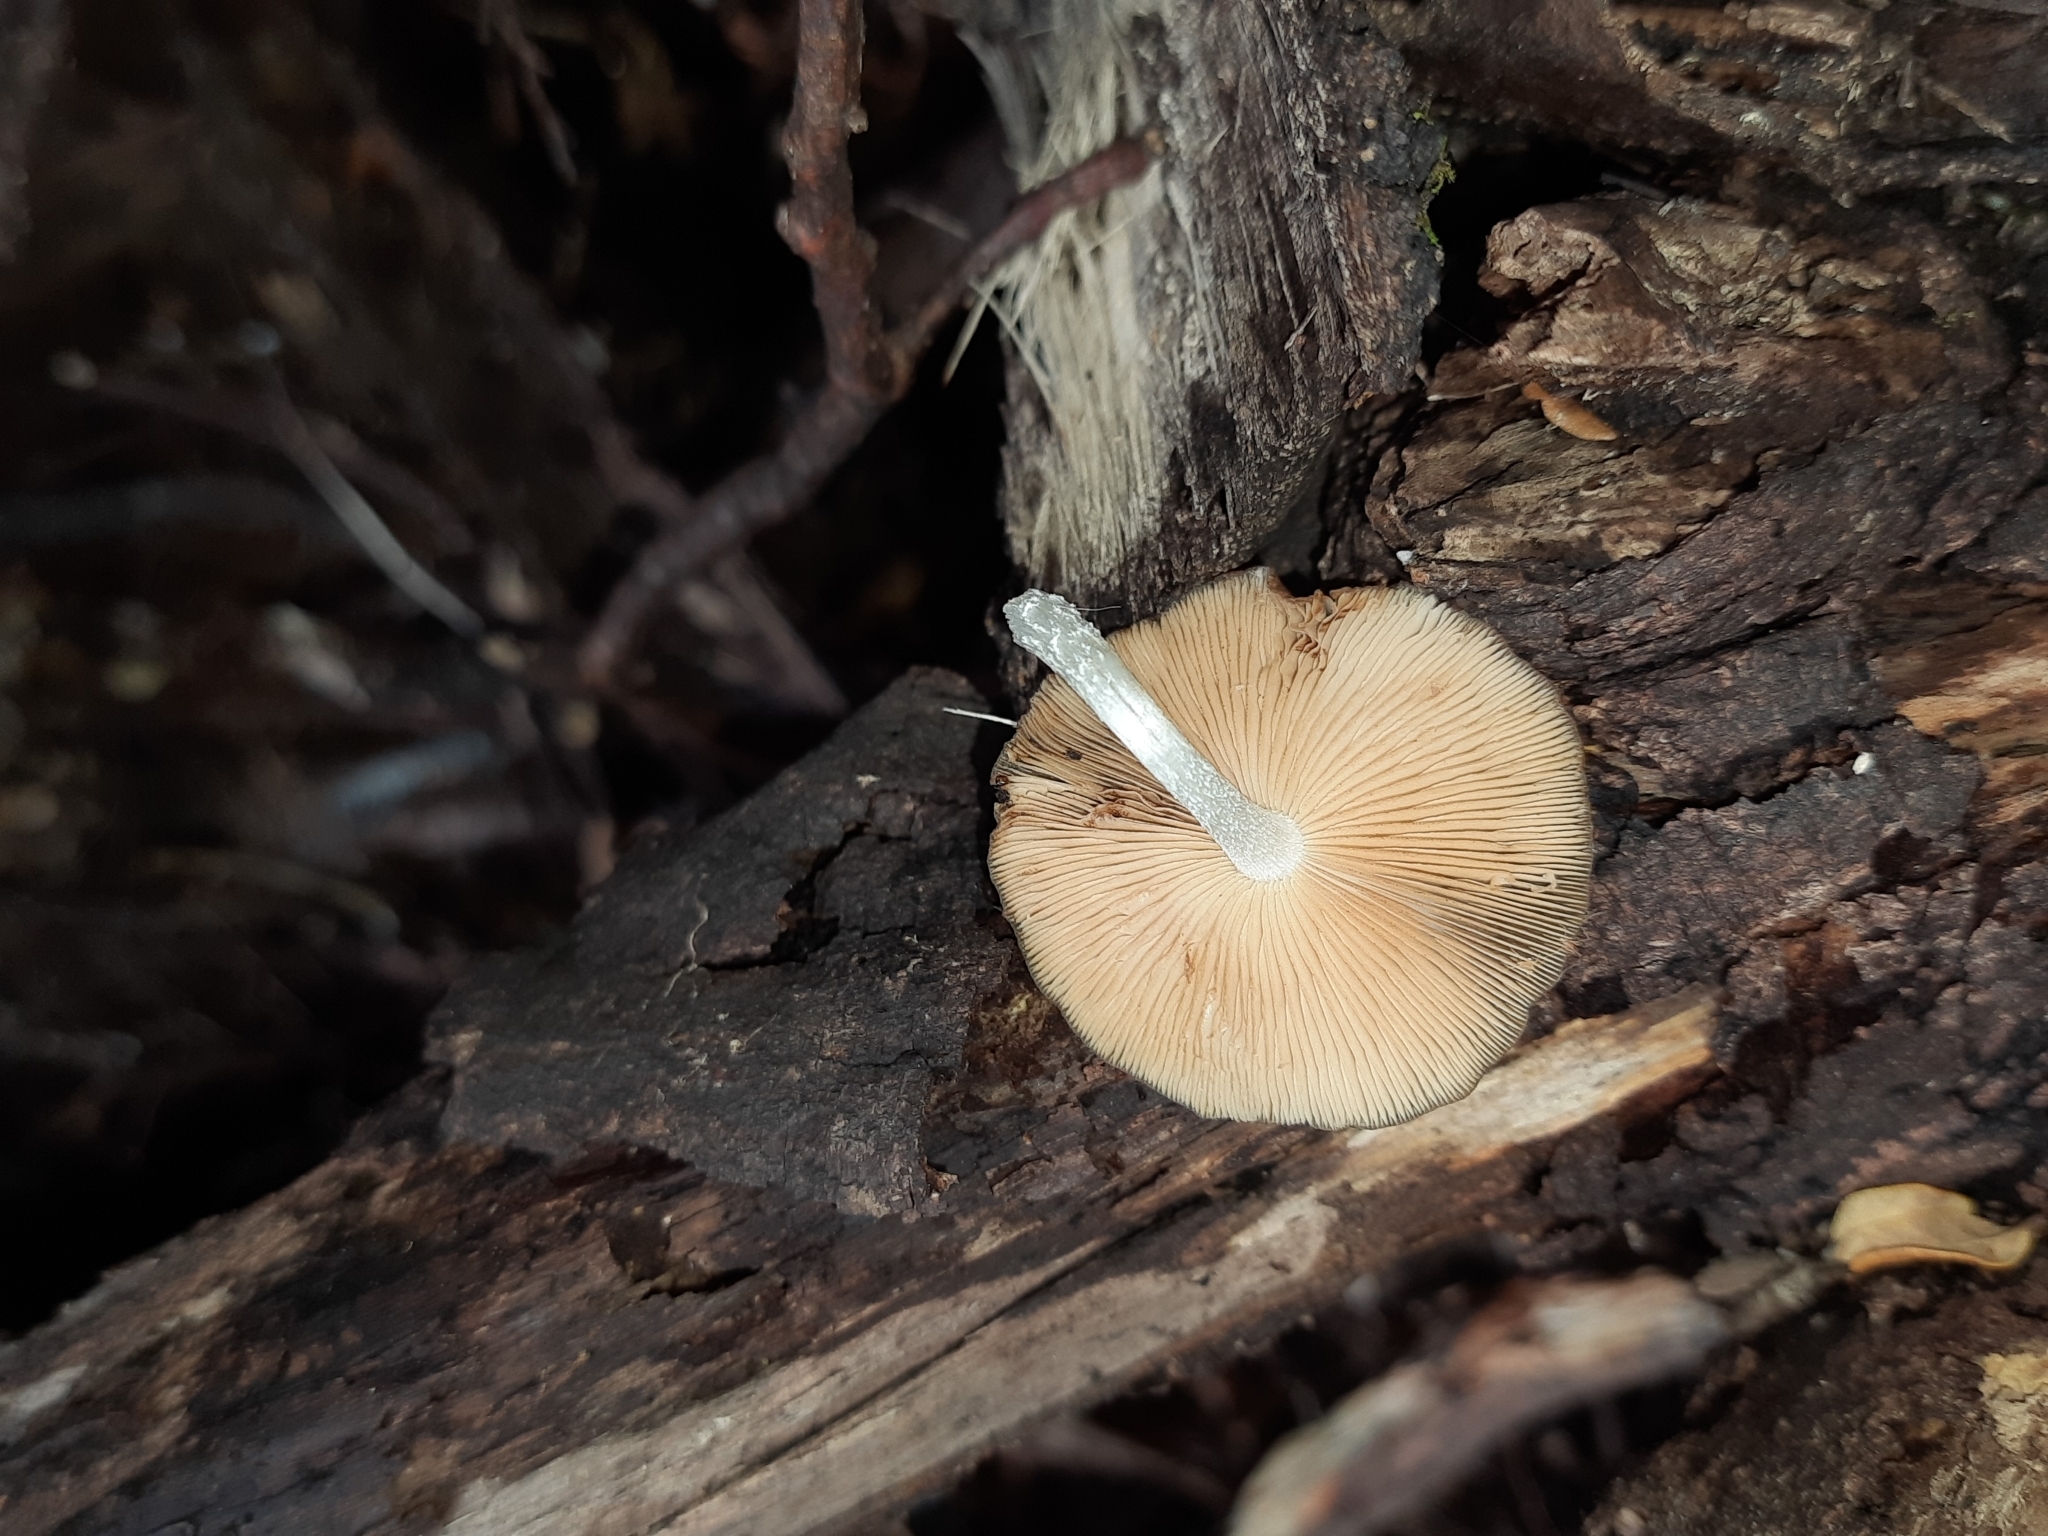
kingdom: Fungi
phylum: Basidiomycota
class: Agaricomycetes
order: Agaricales
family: Bolbitiaceae
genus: Bolbitius
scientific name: Bolbitius muscicola
